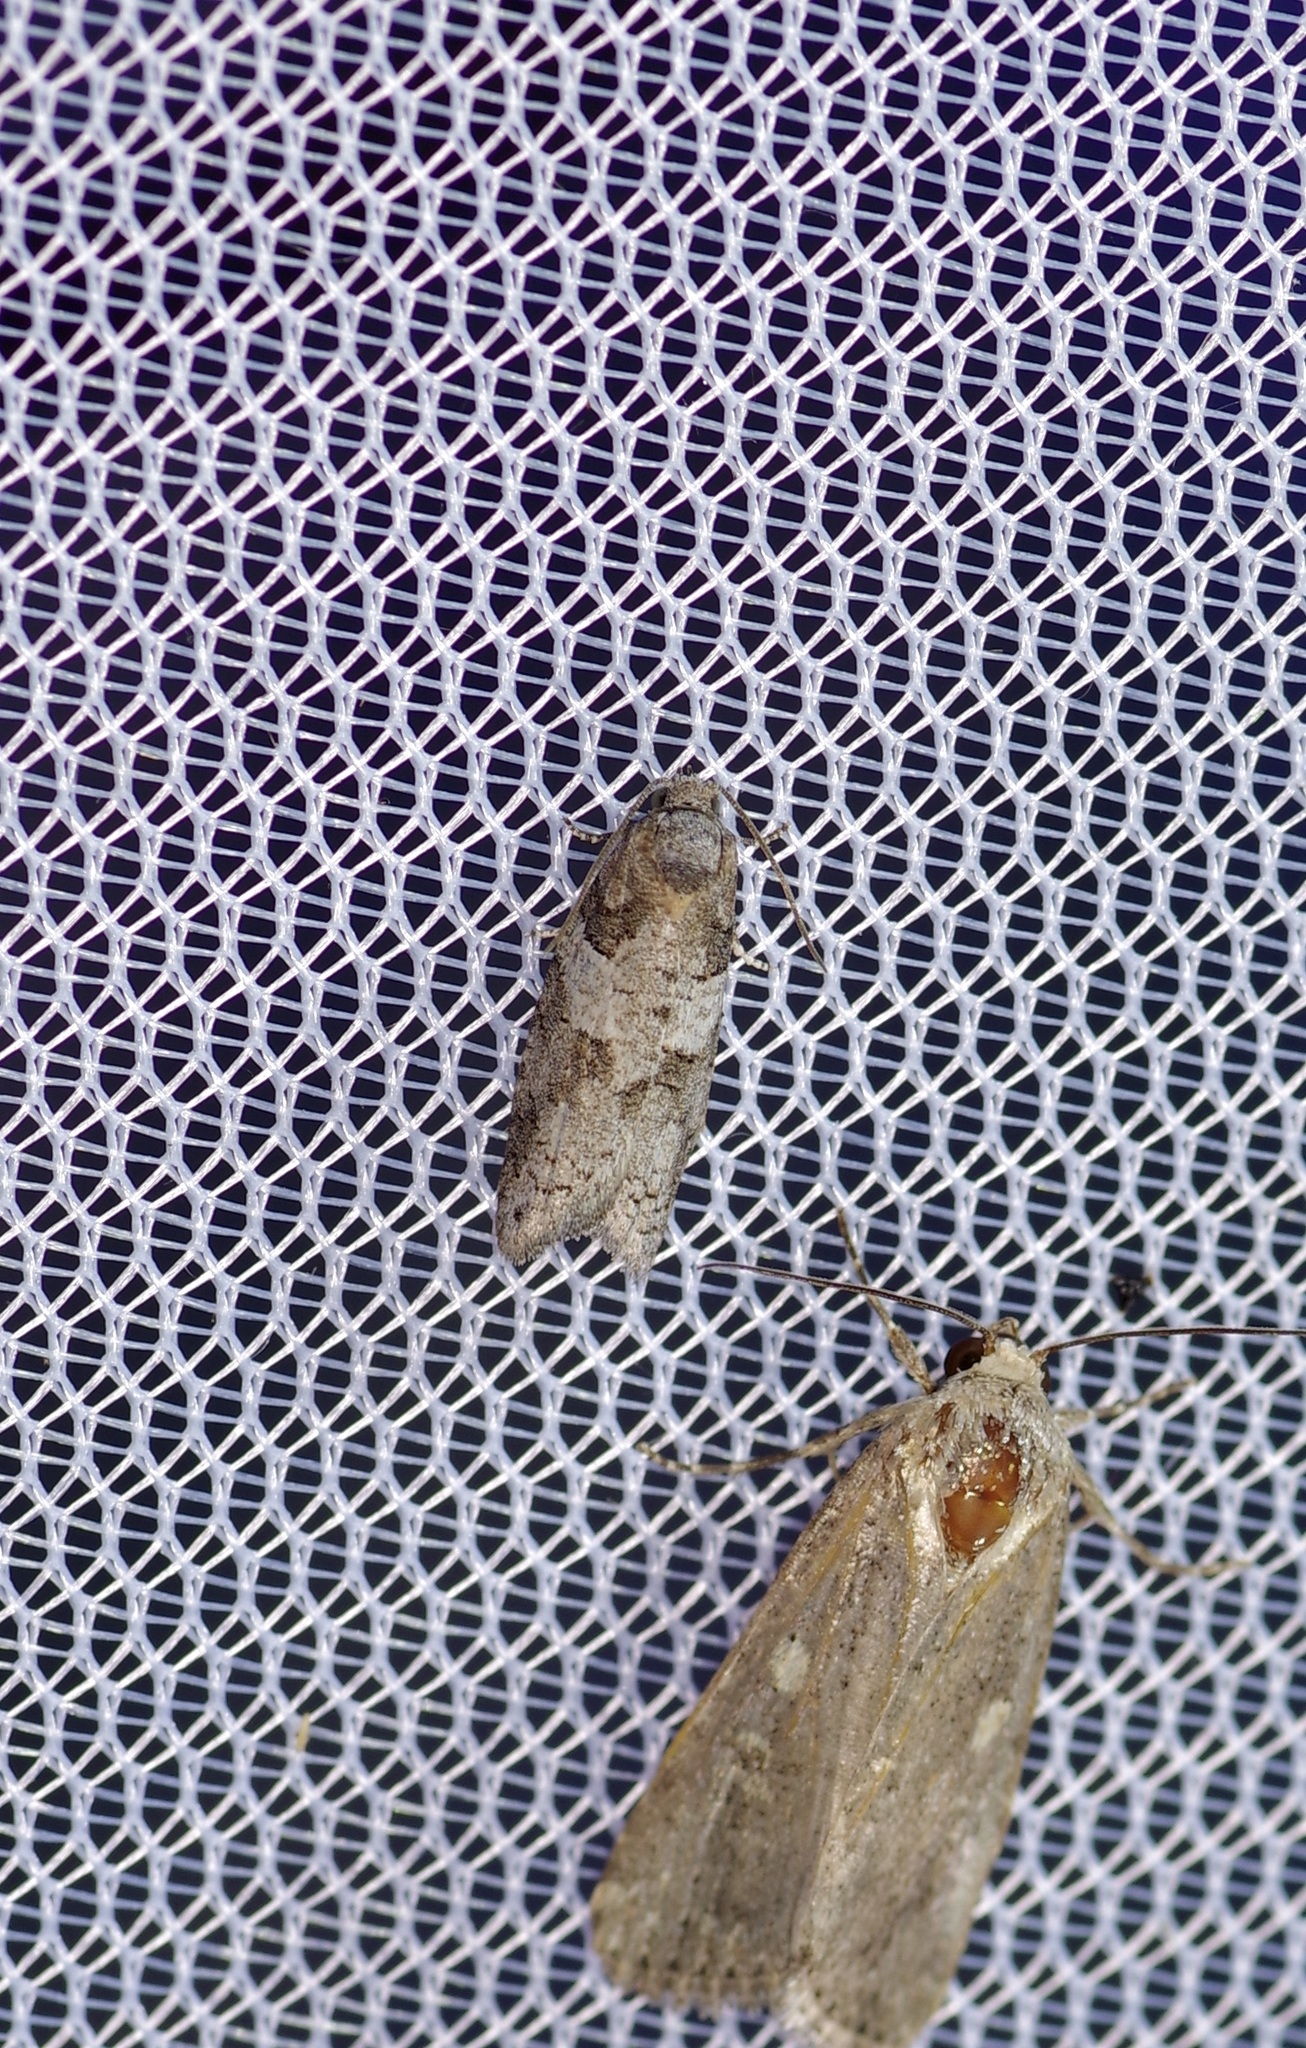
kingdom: Animalia
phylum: Arthropoda
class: Insecta
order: Lepidoptera
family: Tortricidae
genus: Decodes
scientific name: Decodes basiplagana
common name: Gray-marked tortricid
